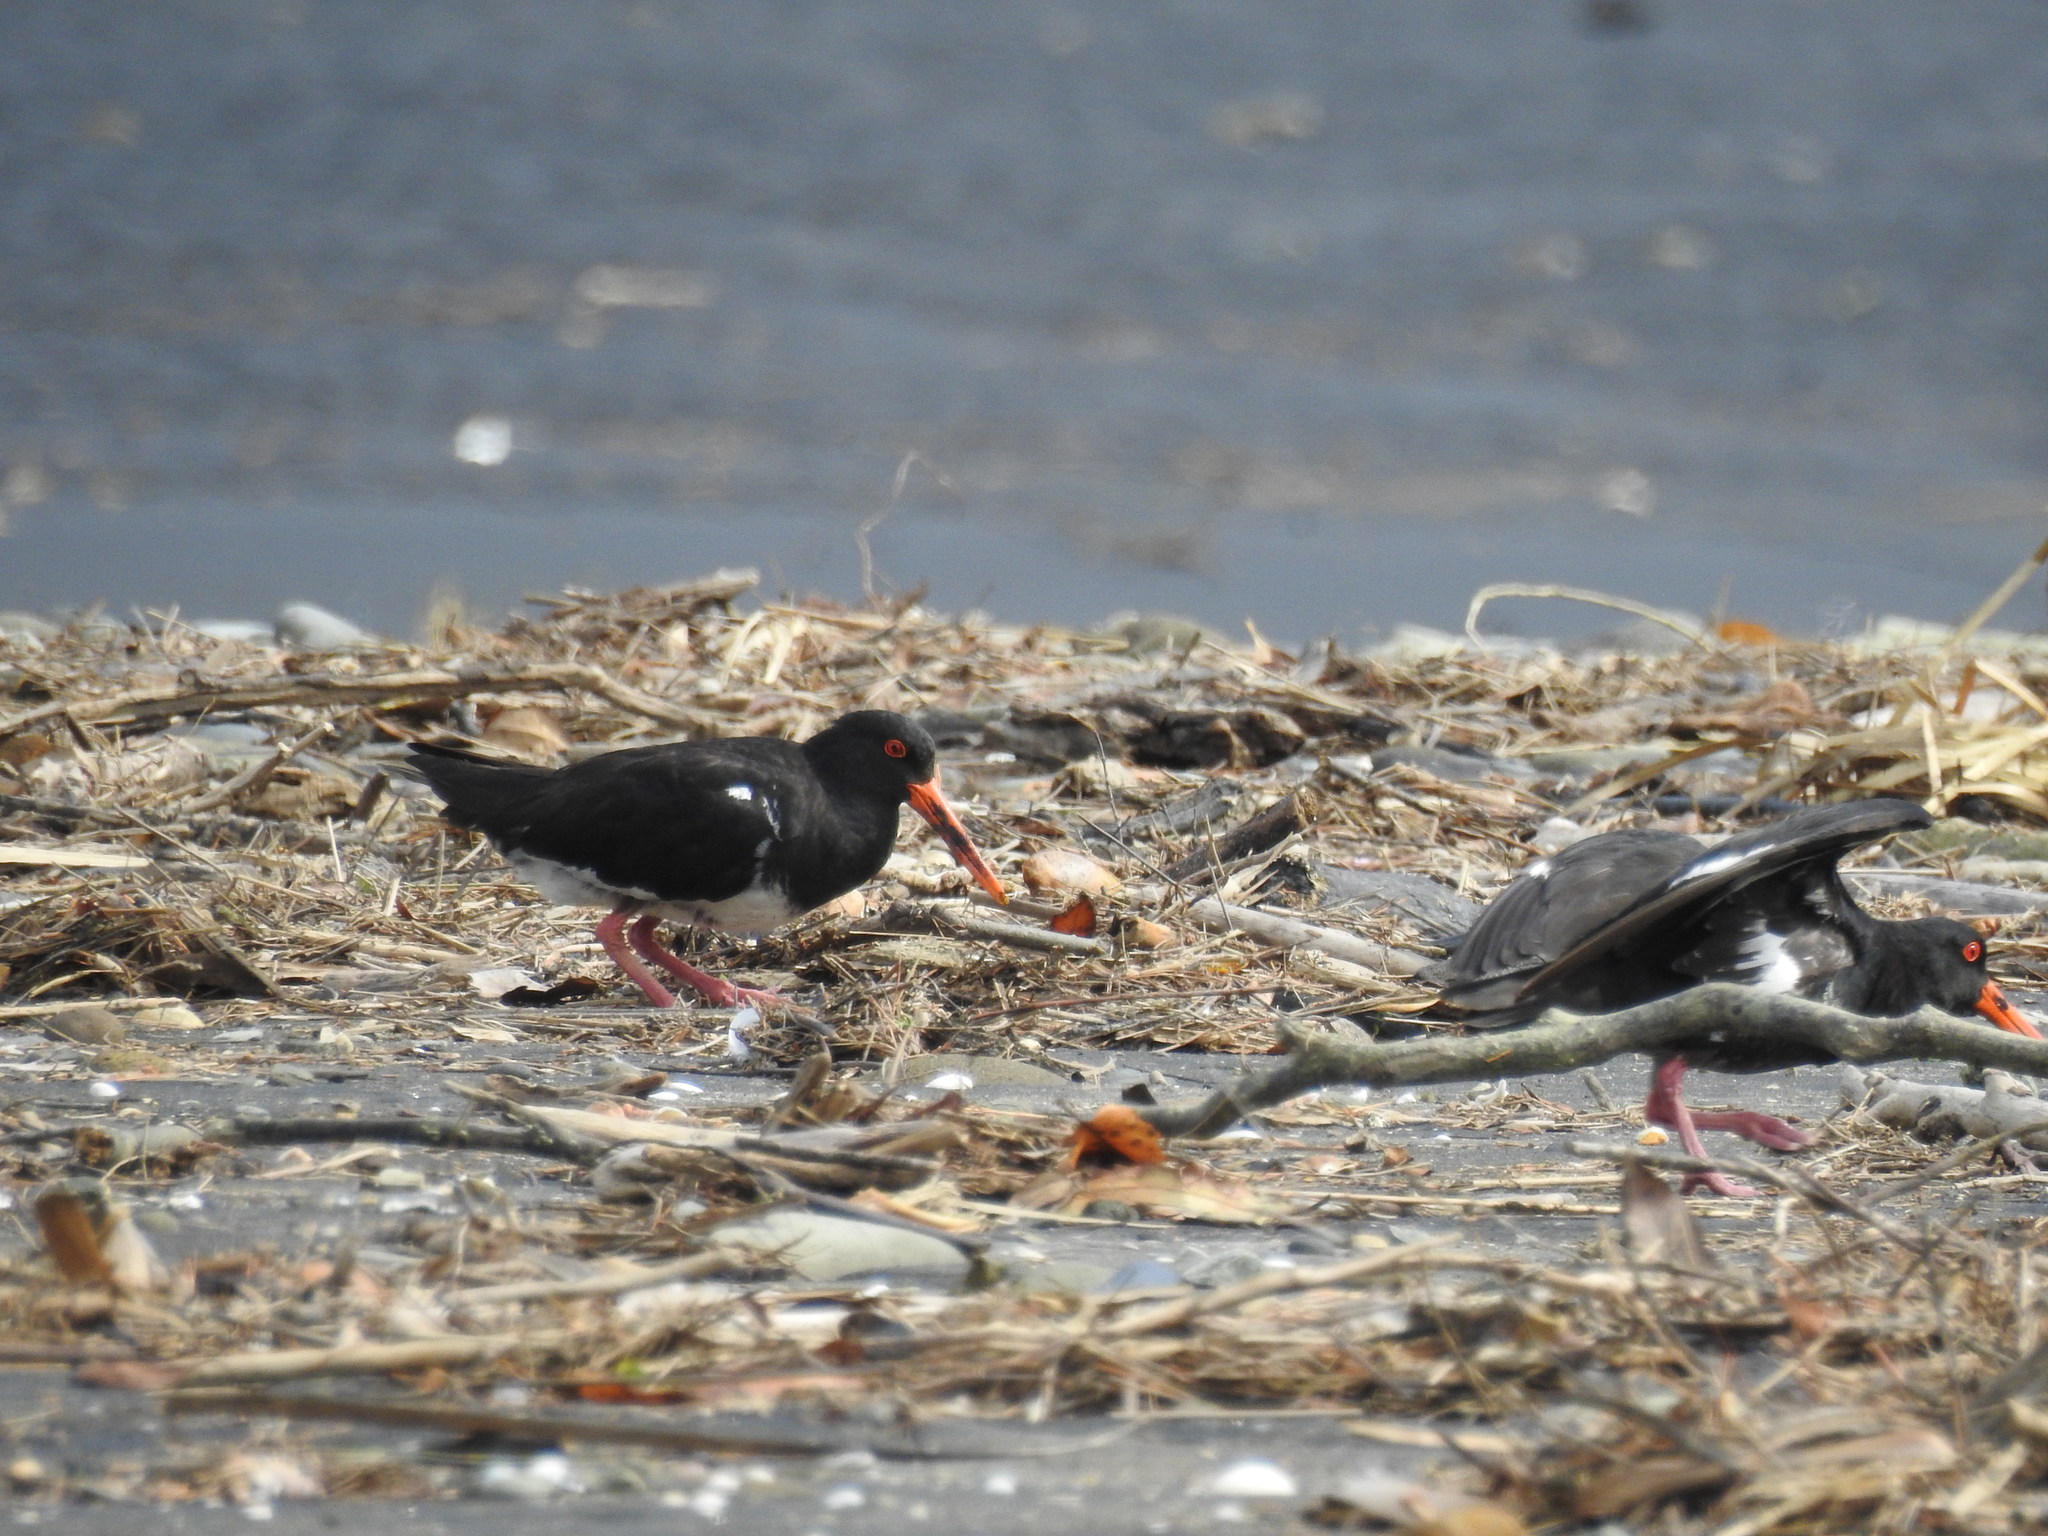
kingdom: Animalia
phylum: Chordata
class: Aves
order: Charadriiformes
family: Haematopodidae
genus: Haematopus
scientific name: Haematopus unicolor
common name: Variable oystercatcher
